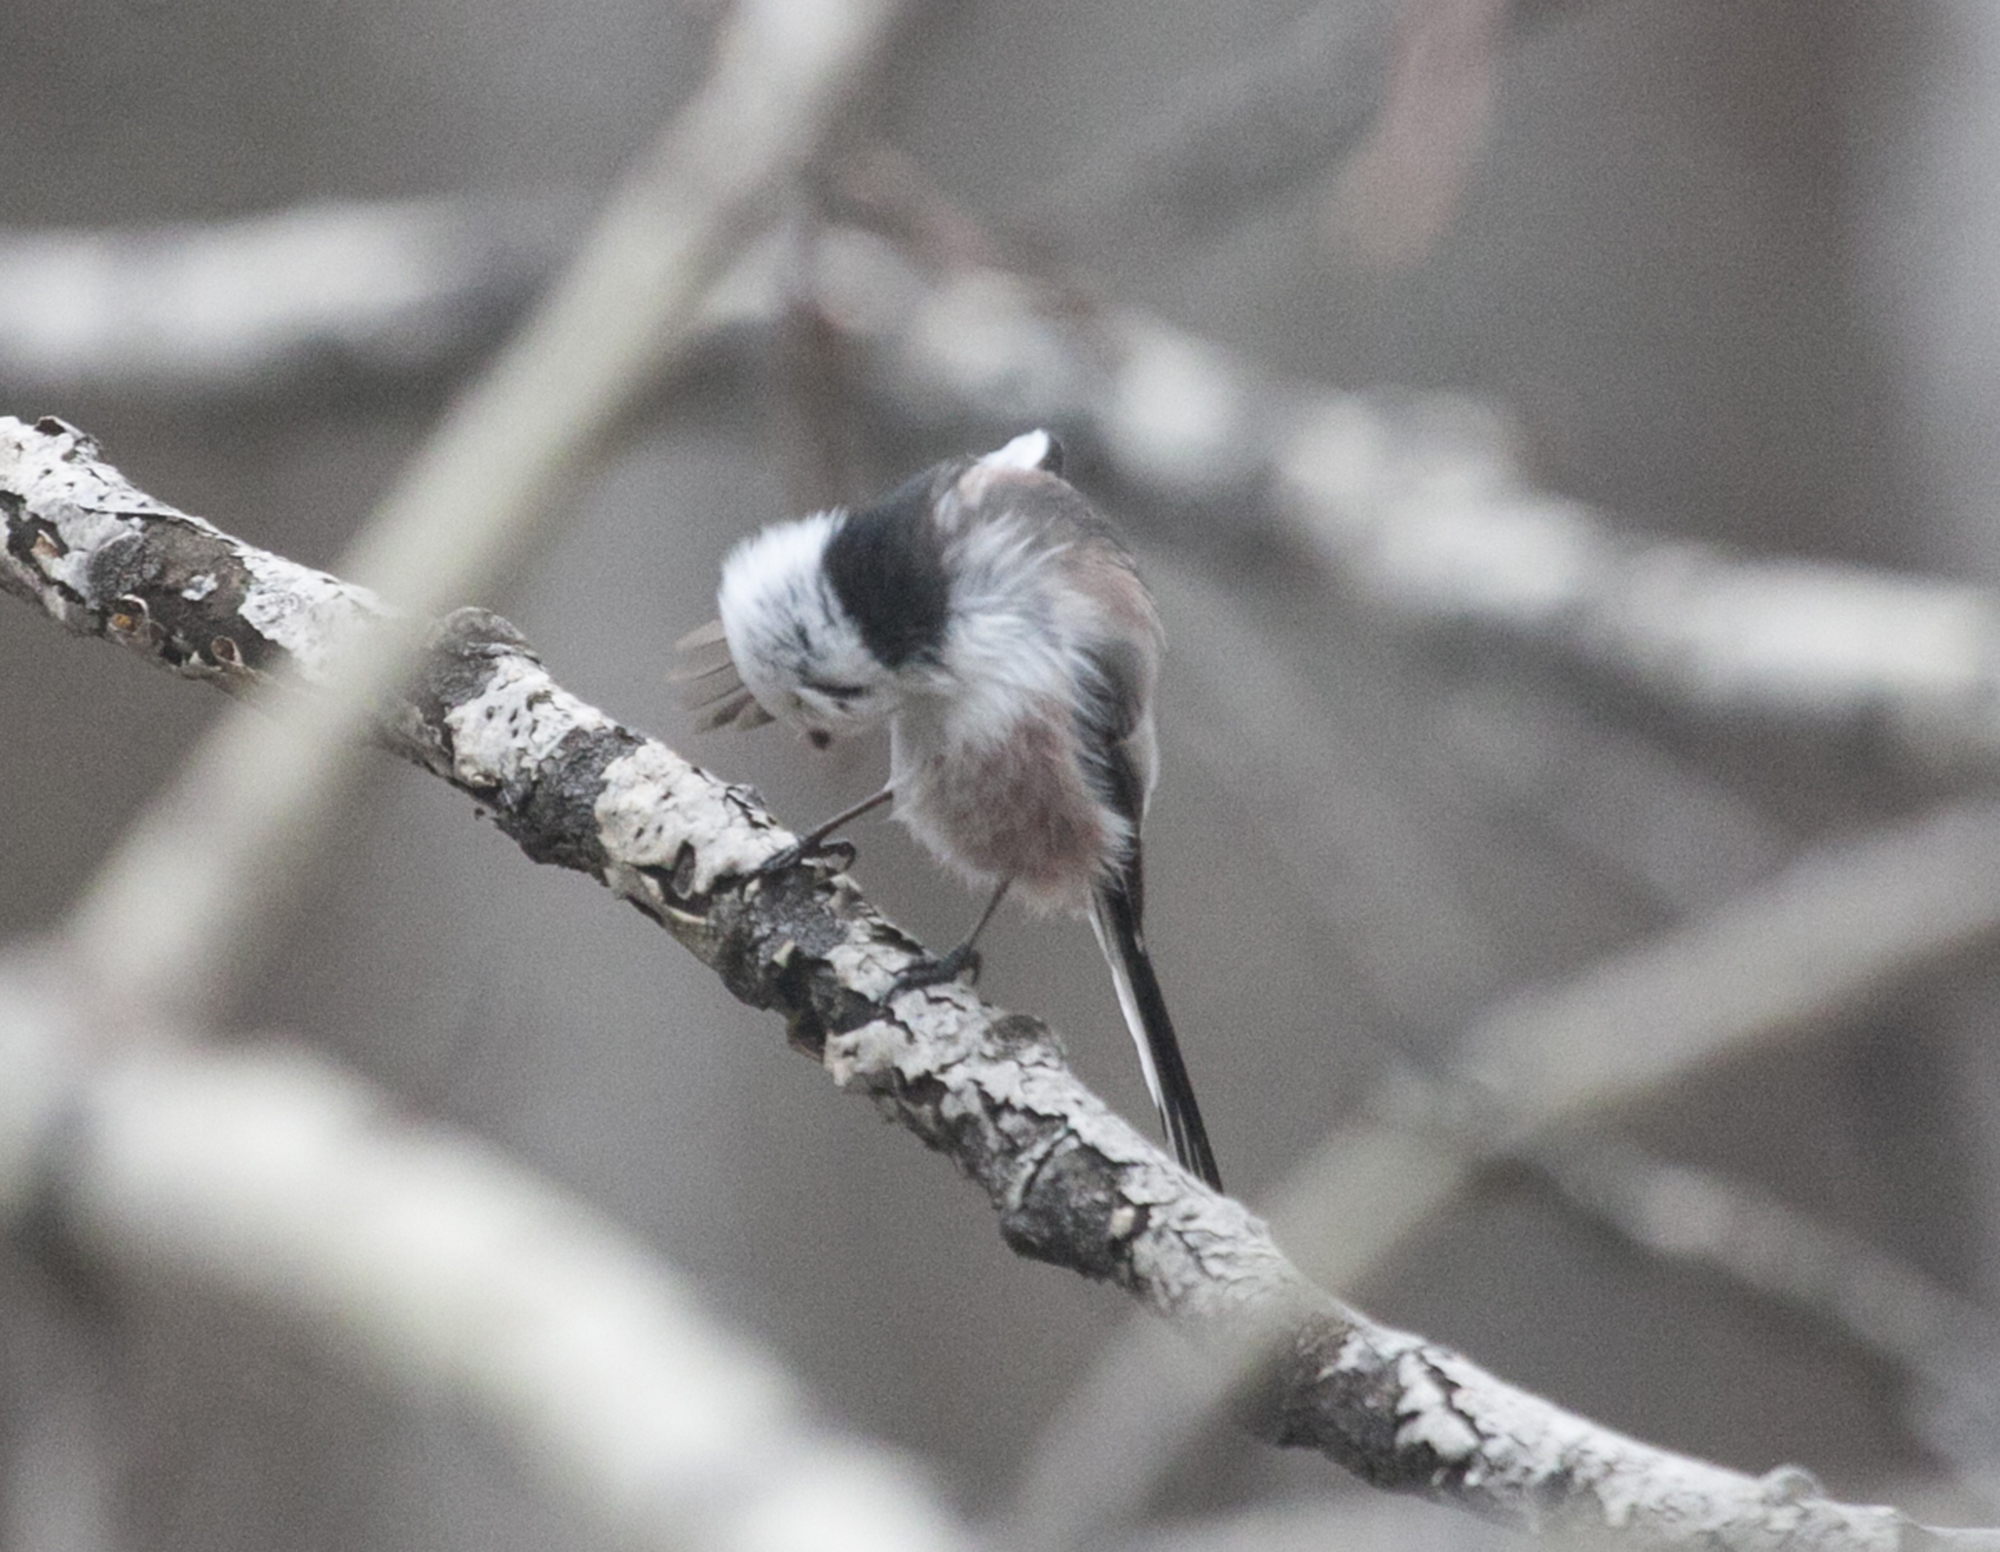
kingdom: Animalia
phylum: Chordata
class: Aves
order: Passeriformes
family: Aegithalidae
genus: Aegithalos
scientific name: Aegithalos caudatus
